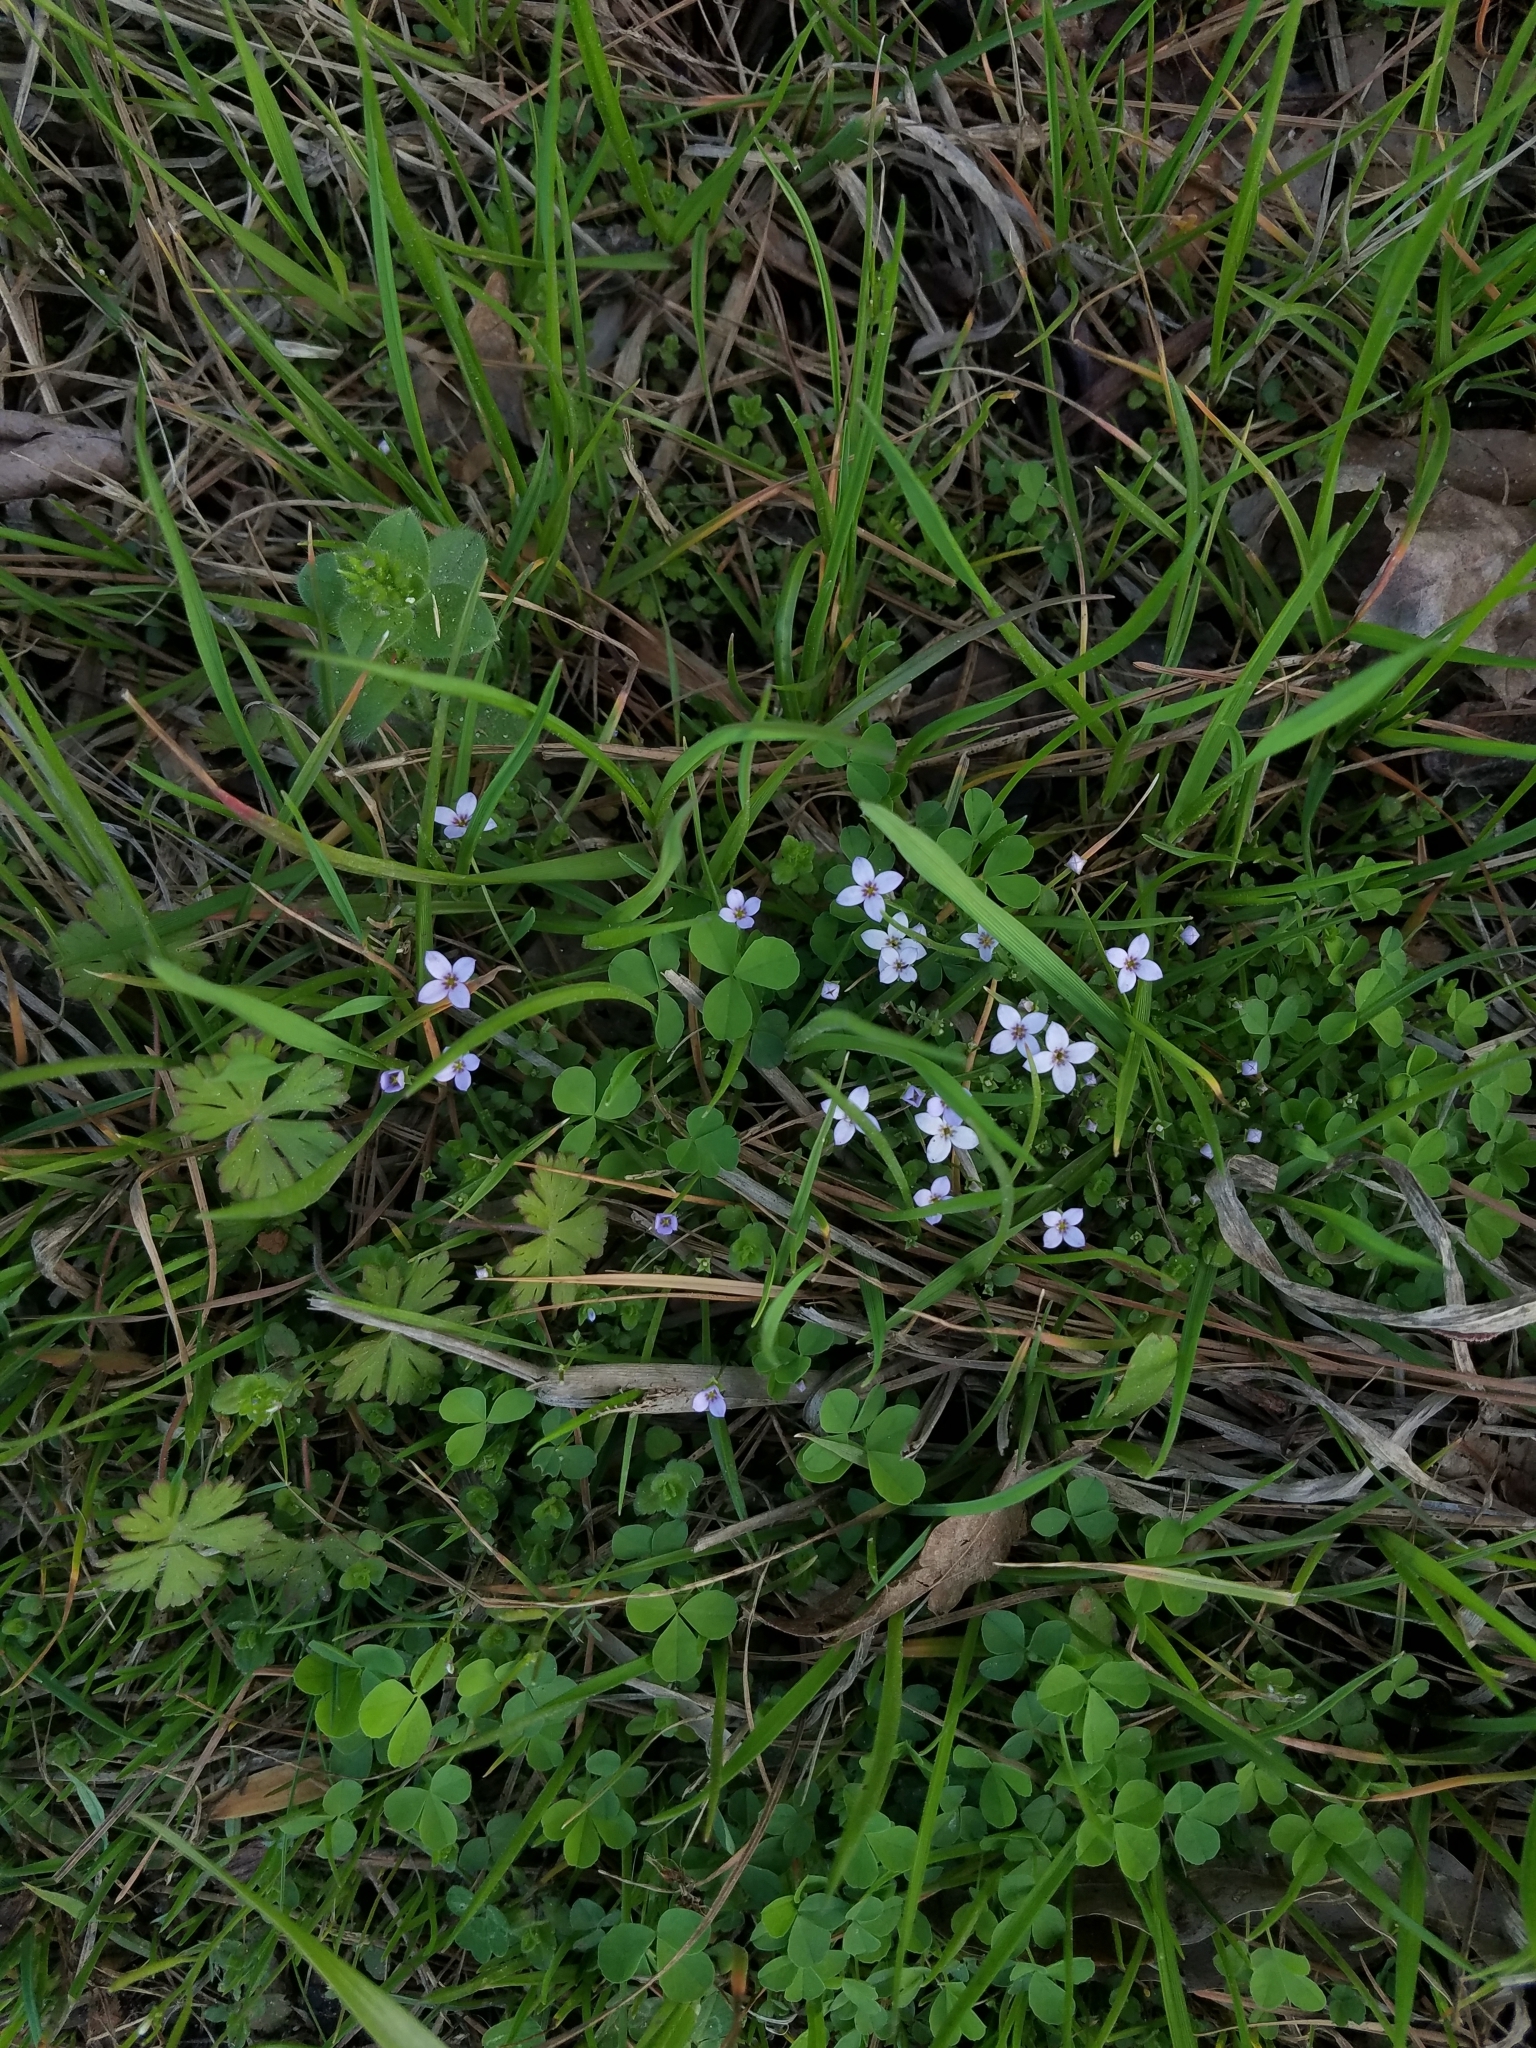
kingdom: Plantae
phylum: Tracheophyta
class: Magnoliopsida
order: Gentianales
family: Rubiaceae
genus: Houstonia
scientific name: Houstonia pusilla
